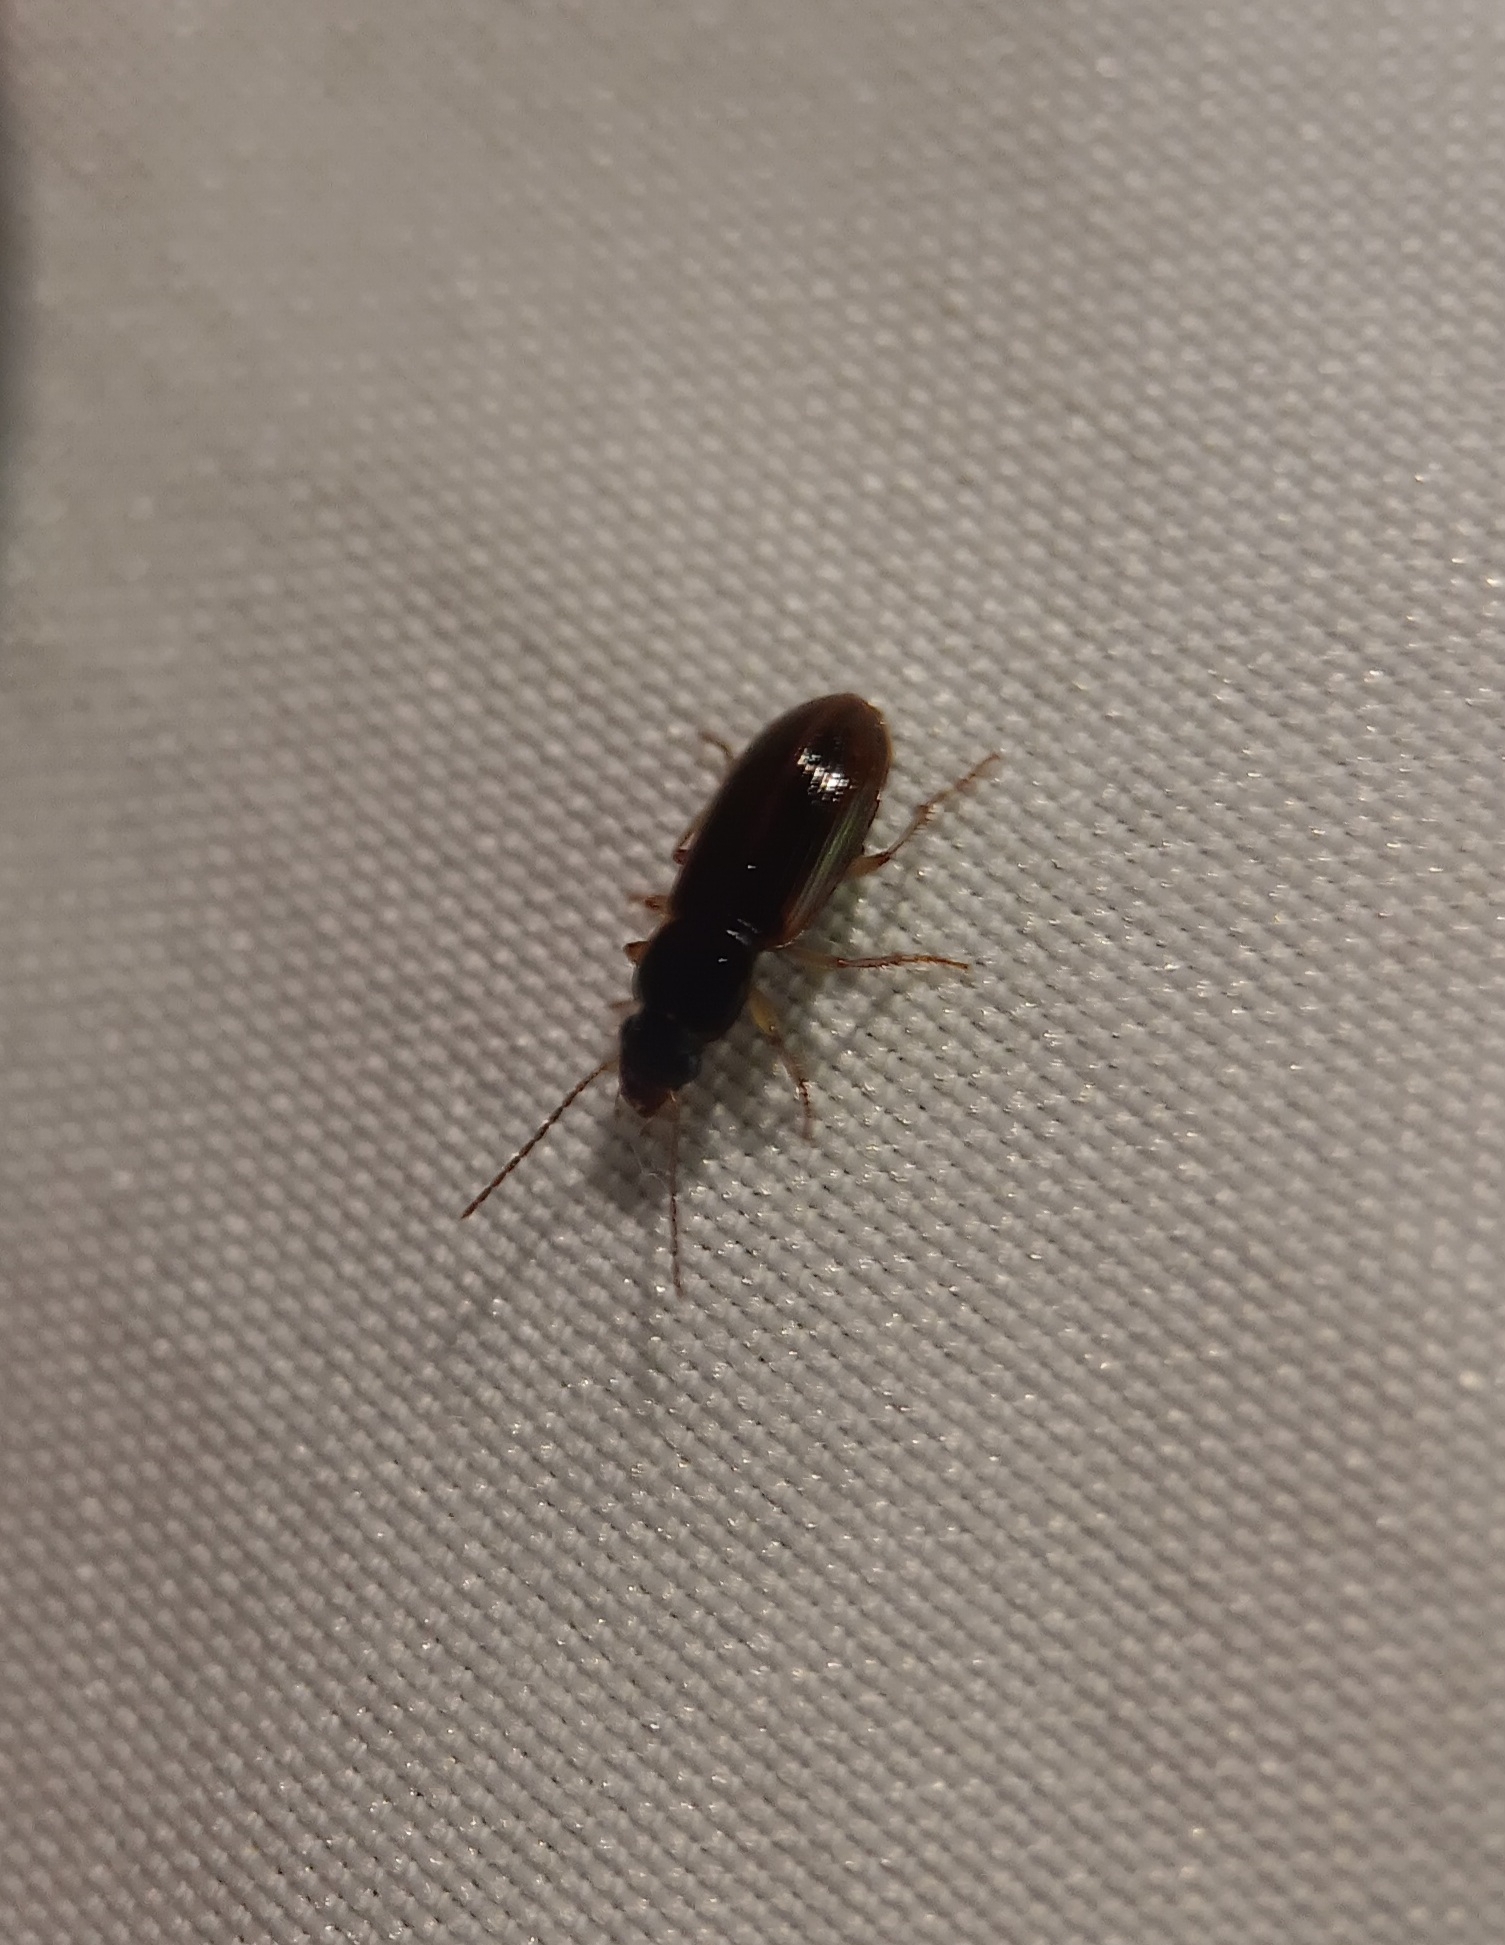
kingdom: Animalia
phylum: Arthropoda
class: Insecta
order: Coleoptera
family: Carabidae
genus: Stenolophus
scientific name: Stenolophus ochropezus
